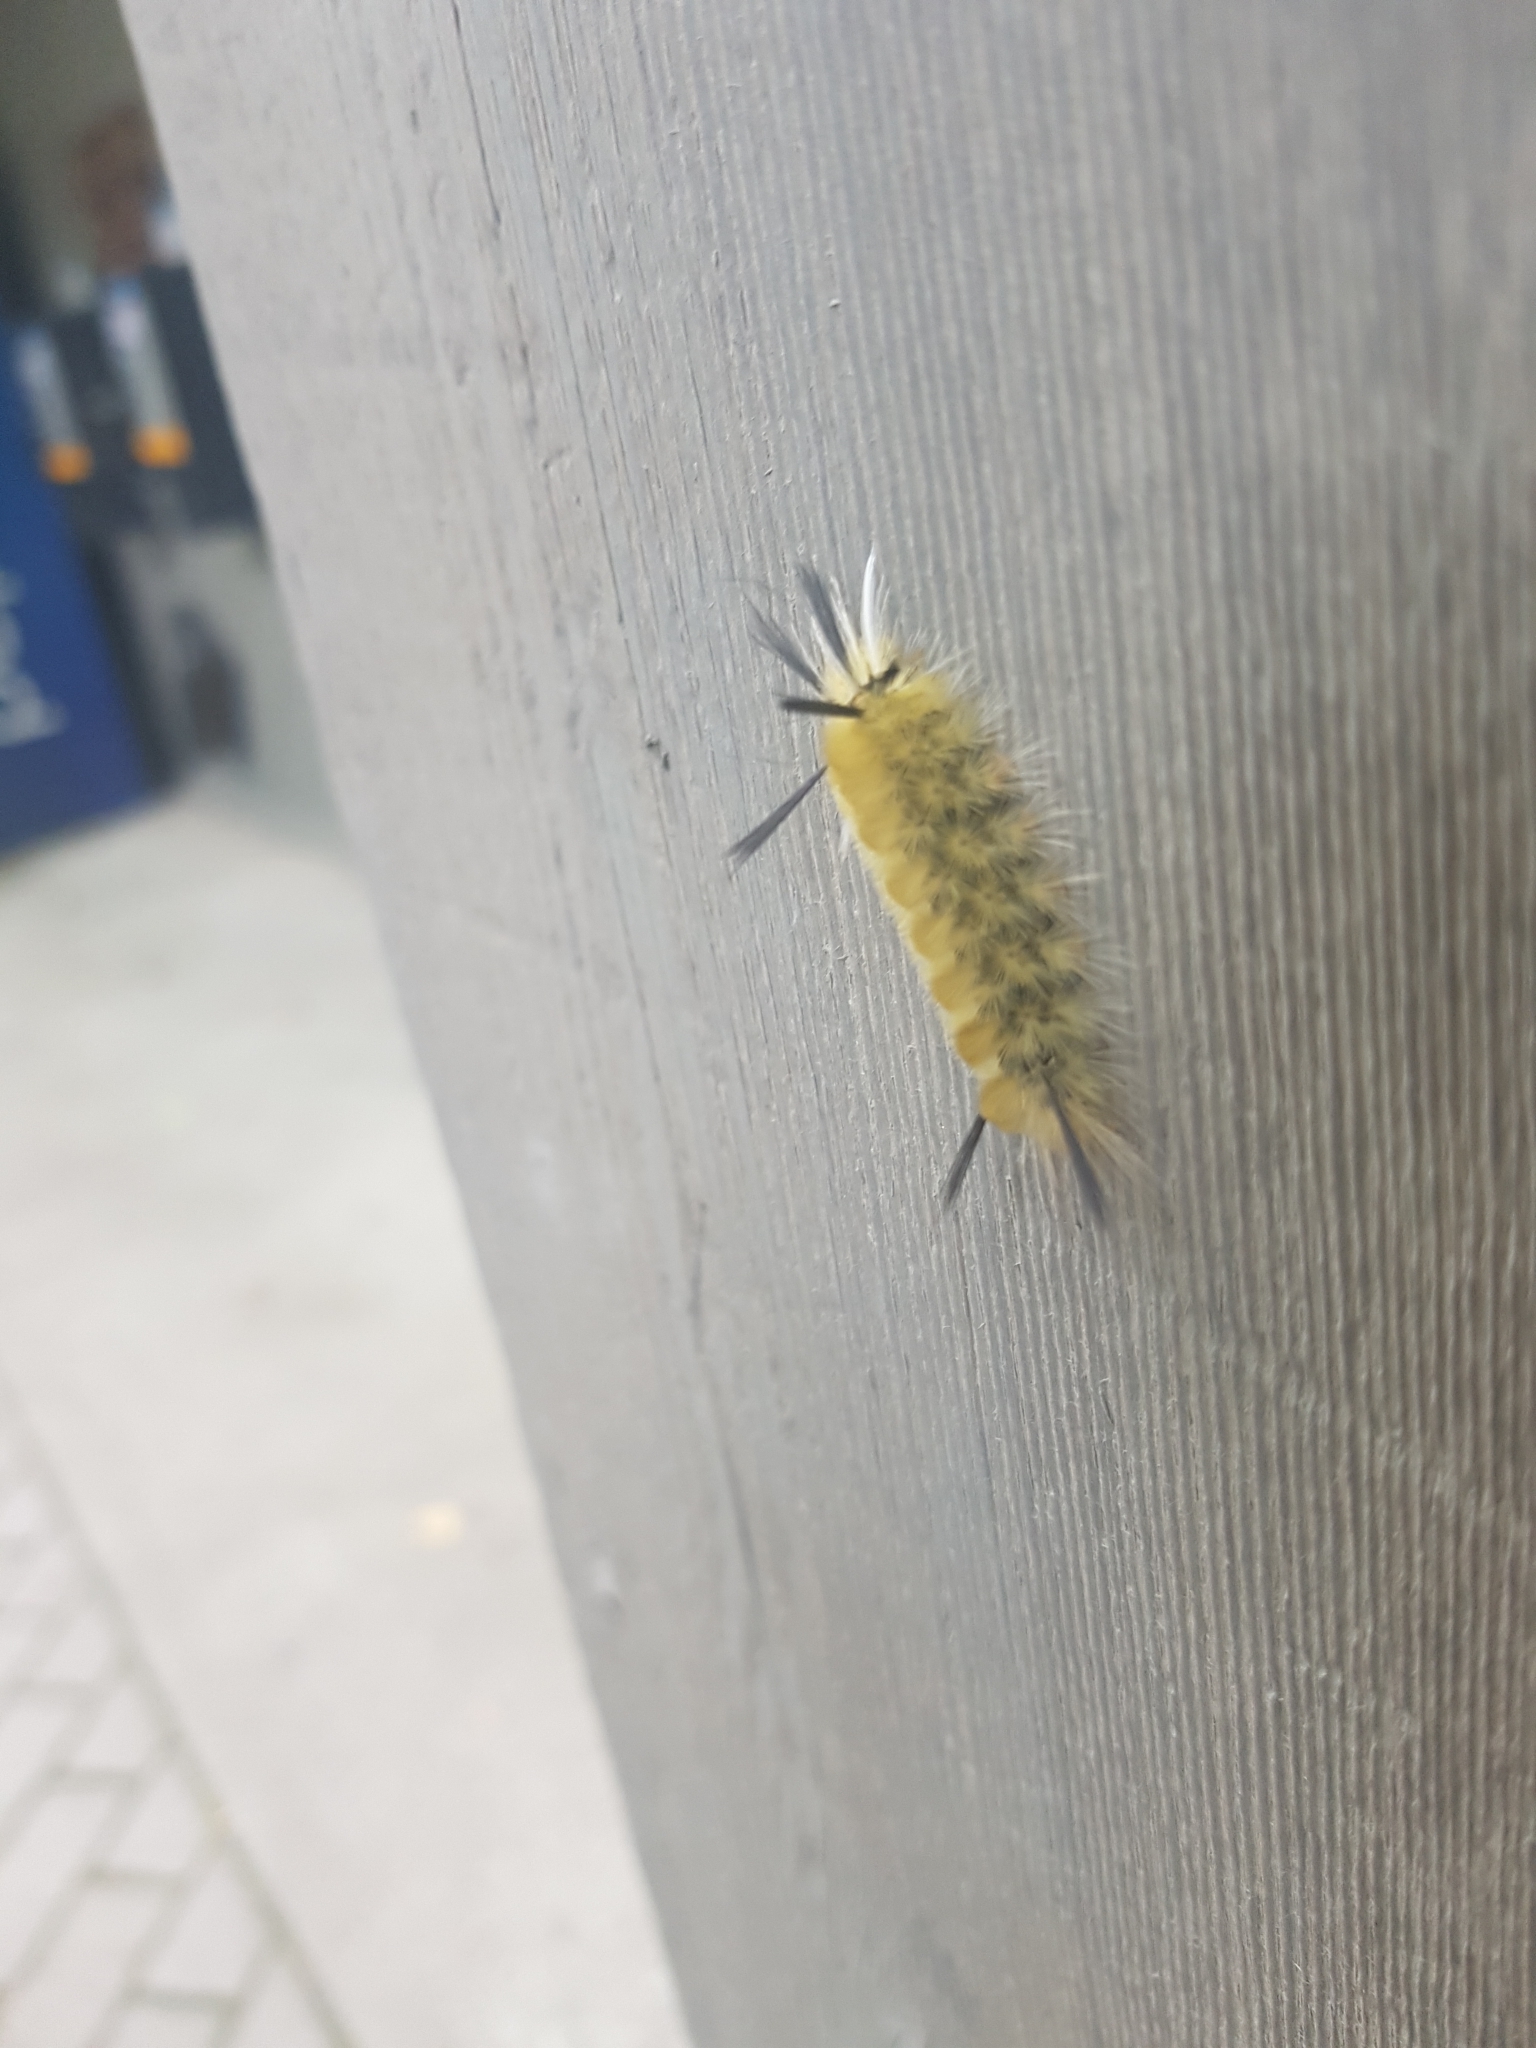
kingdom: Animalia
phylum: Arthropoda
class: Insecta
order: Lepidoptera
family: Erebidae
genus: Halysidota
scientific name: Halysidota tessellaris
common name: Banded tussock moth
